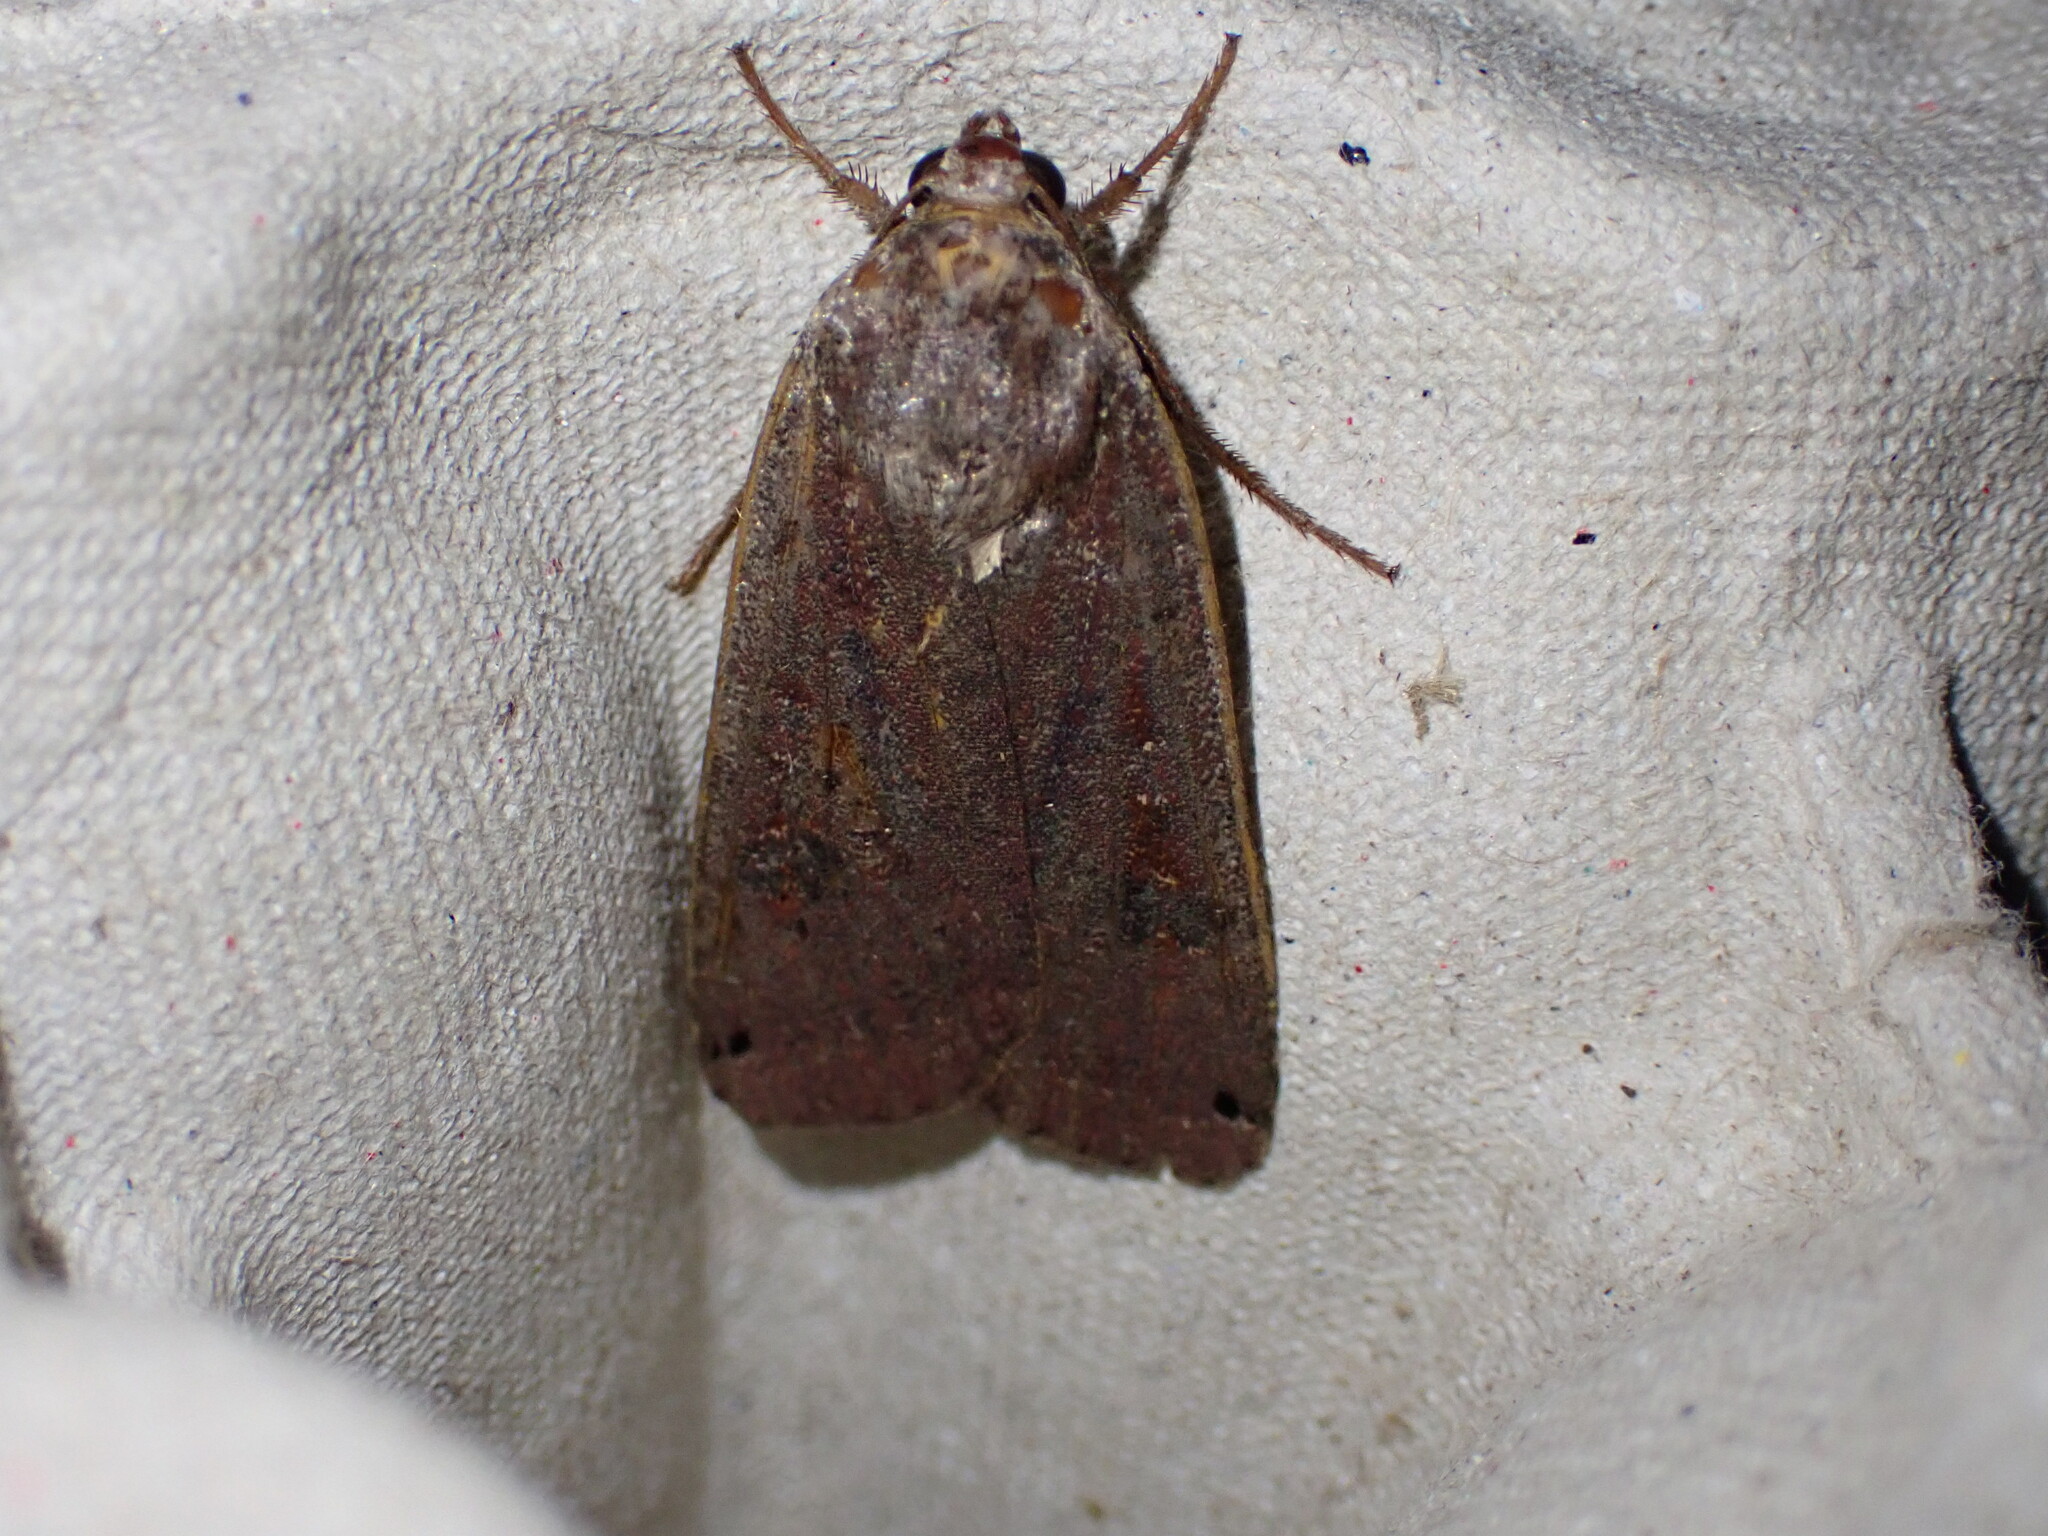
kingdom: Animalia
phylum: Arthropoda
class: Insecta
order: Lepidoptera
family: Noctuidae
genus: Noctua
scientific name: Noctua pronuba
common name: Large yellow underwing
